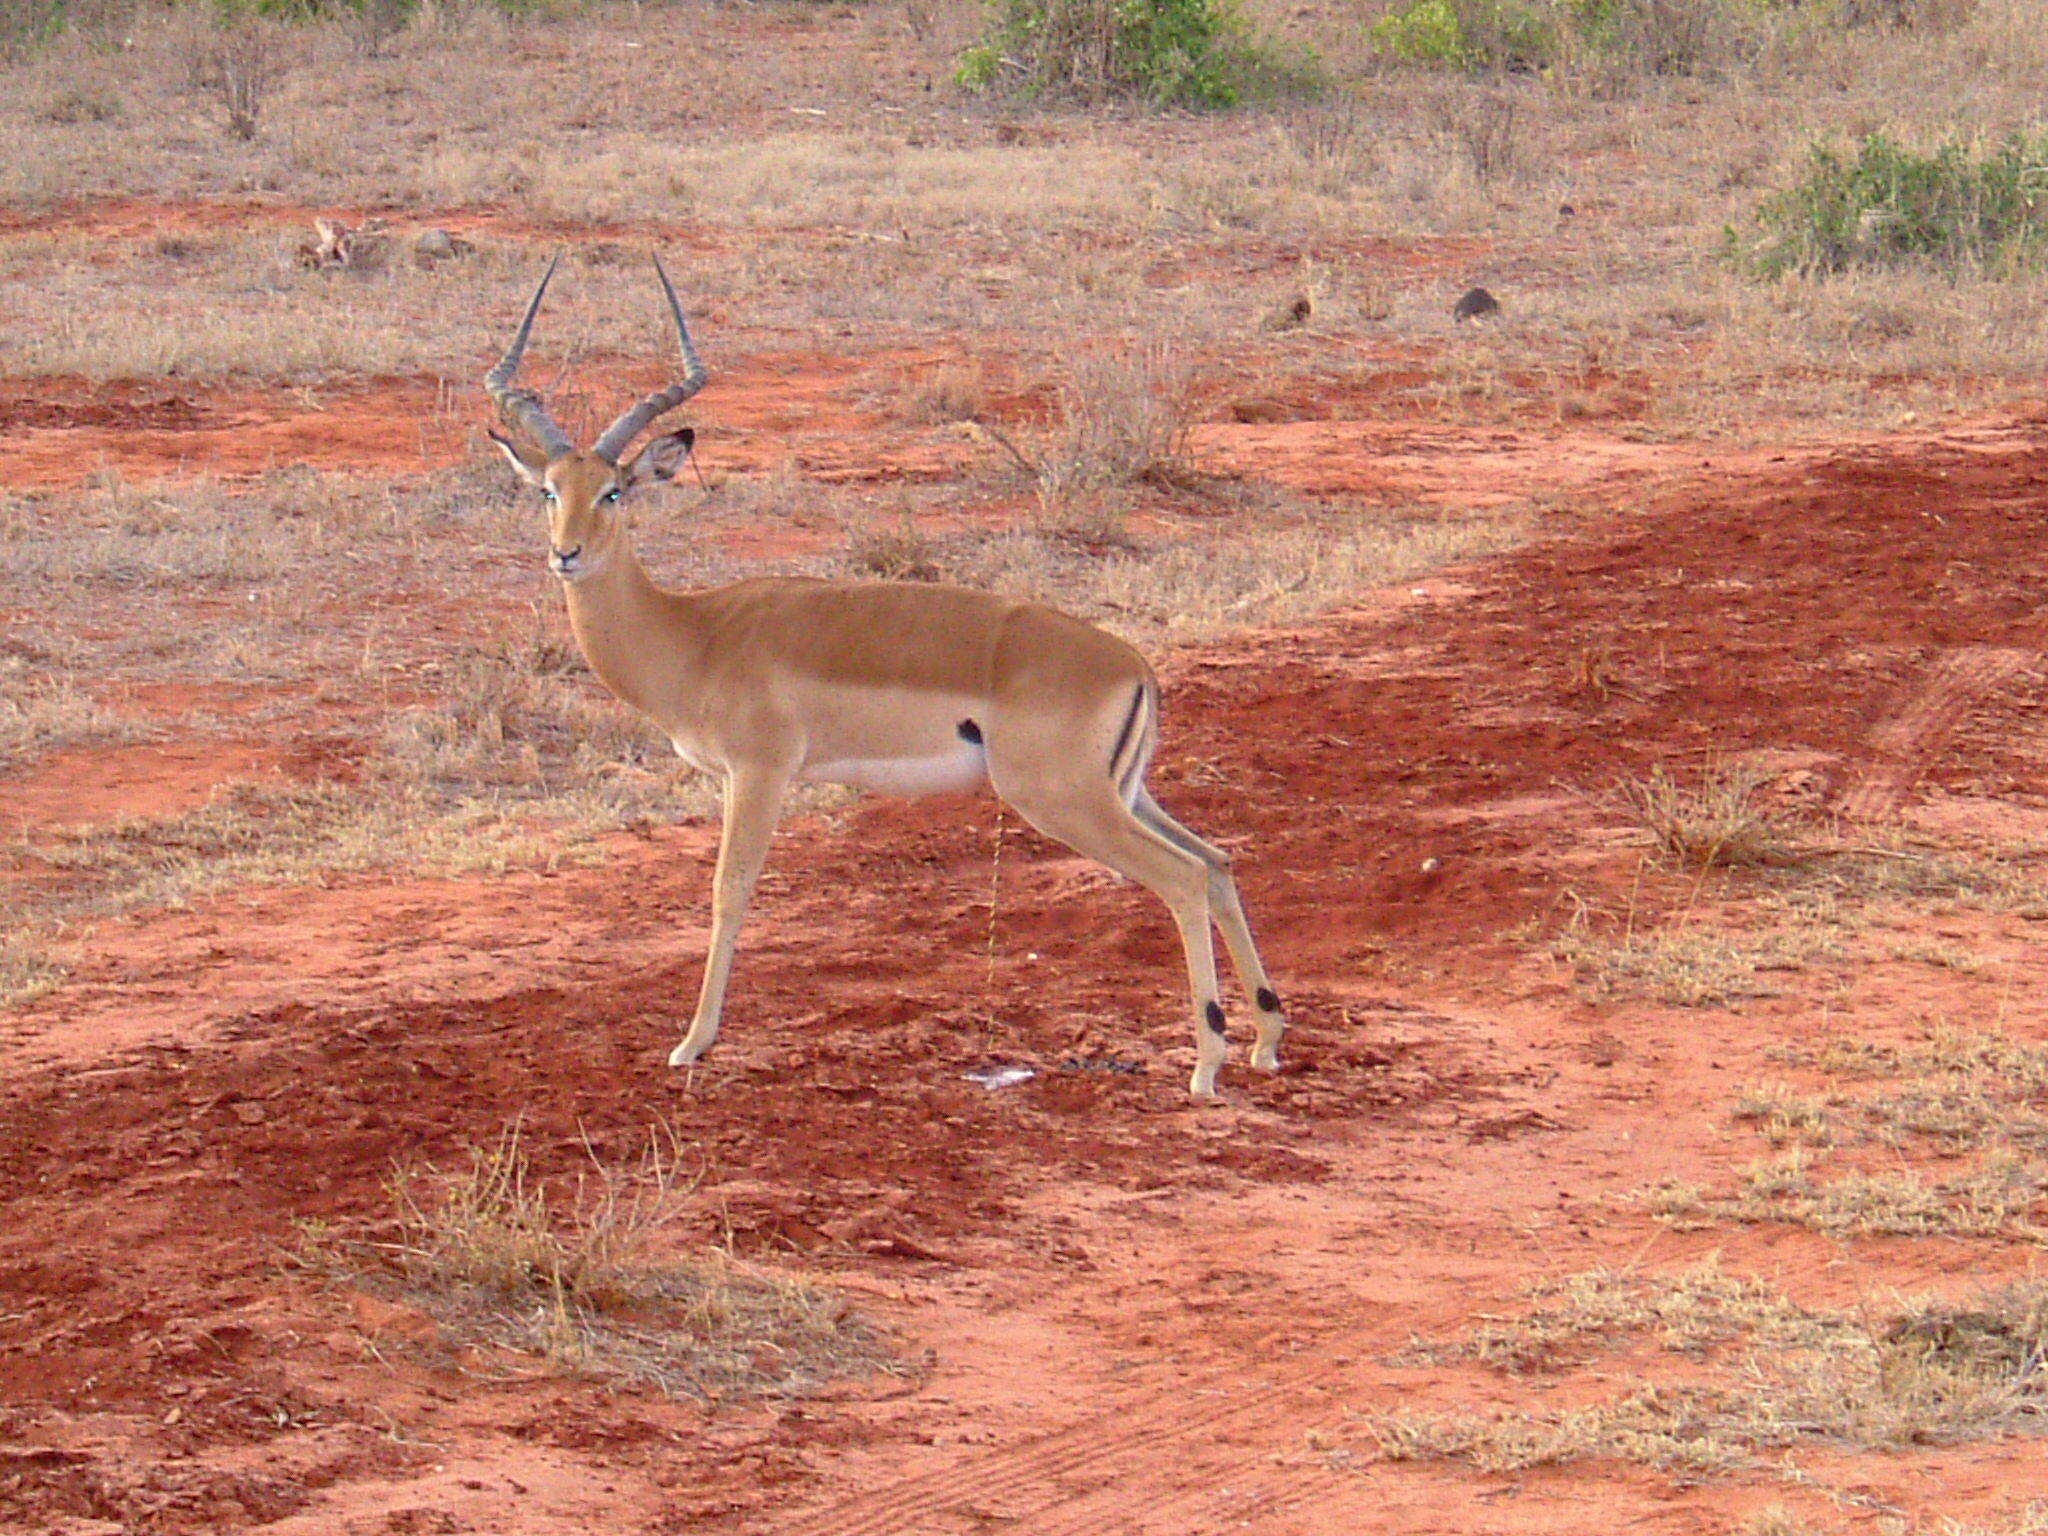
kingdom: Animalia
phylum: Chordata
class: Mammalia
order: Artiodactyla
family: Bovidae
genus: Aepyceros
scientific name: Aepyceros melampus
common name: Impala
